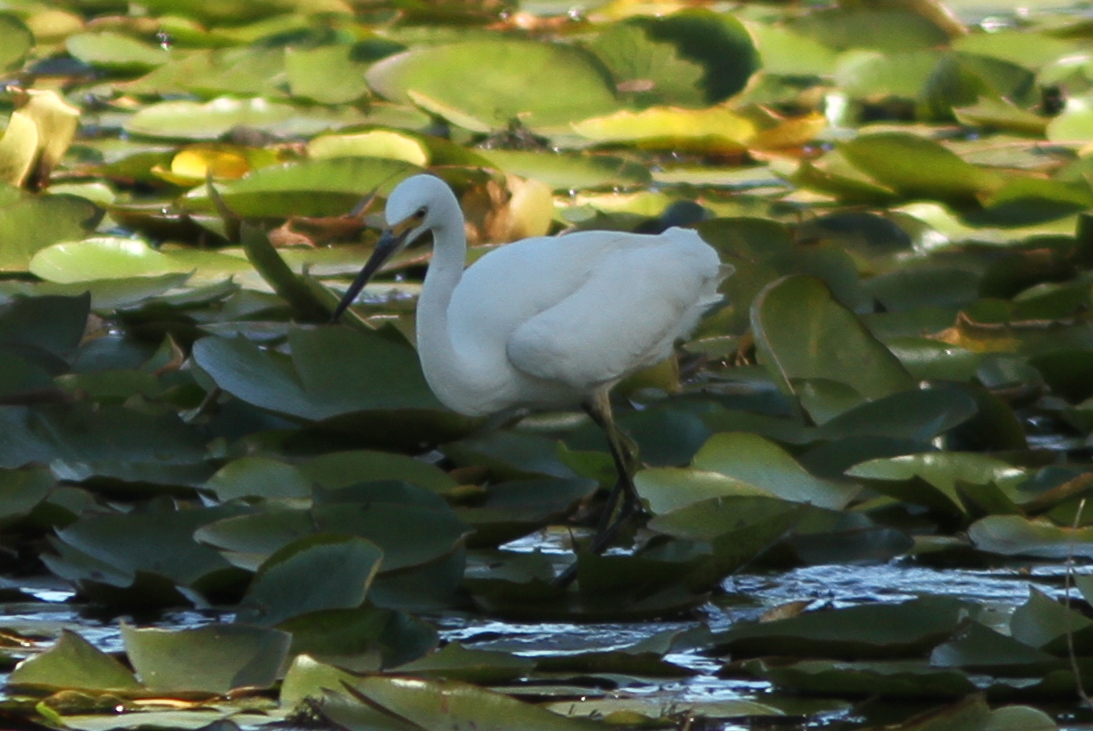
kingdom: Animalia
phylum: Chordata
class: Aves
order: Pelecaniformes
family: Ardeidae
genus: Egretta
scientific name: Egretta garzetta
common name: Little egret
